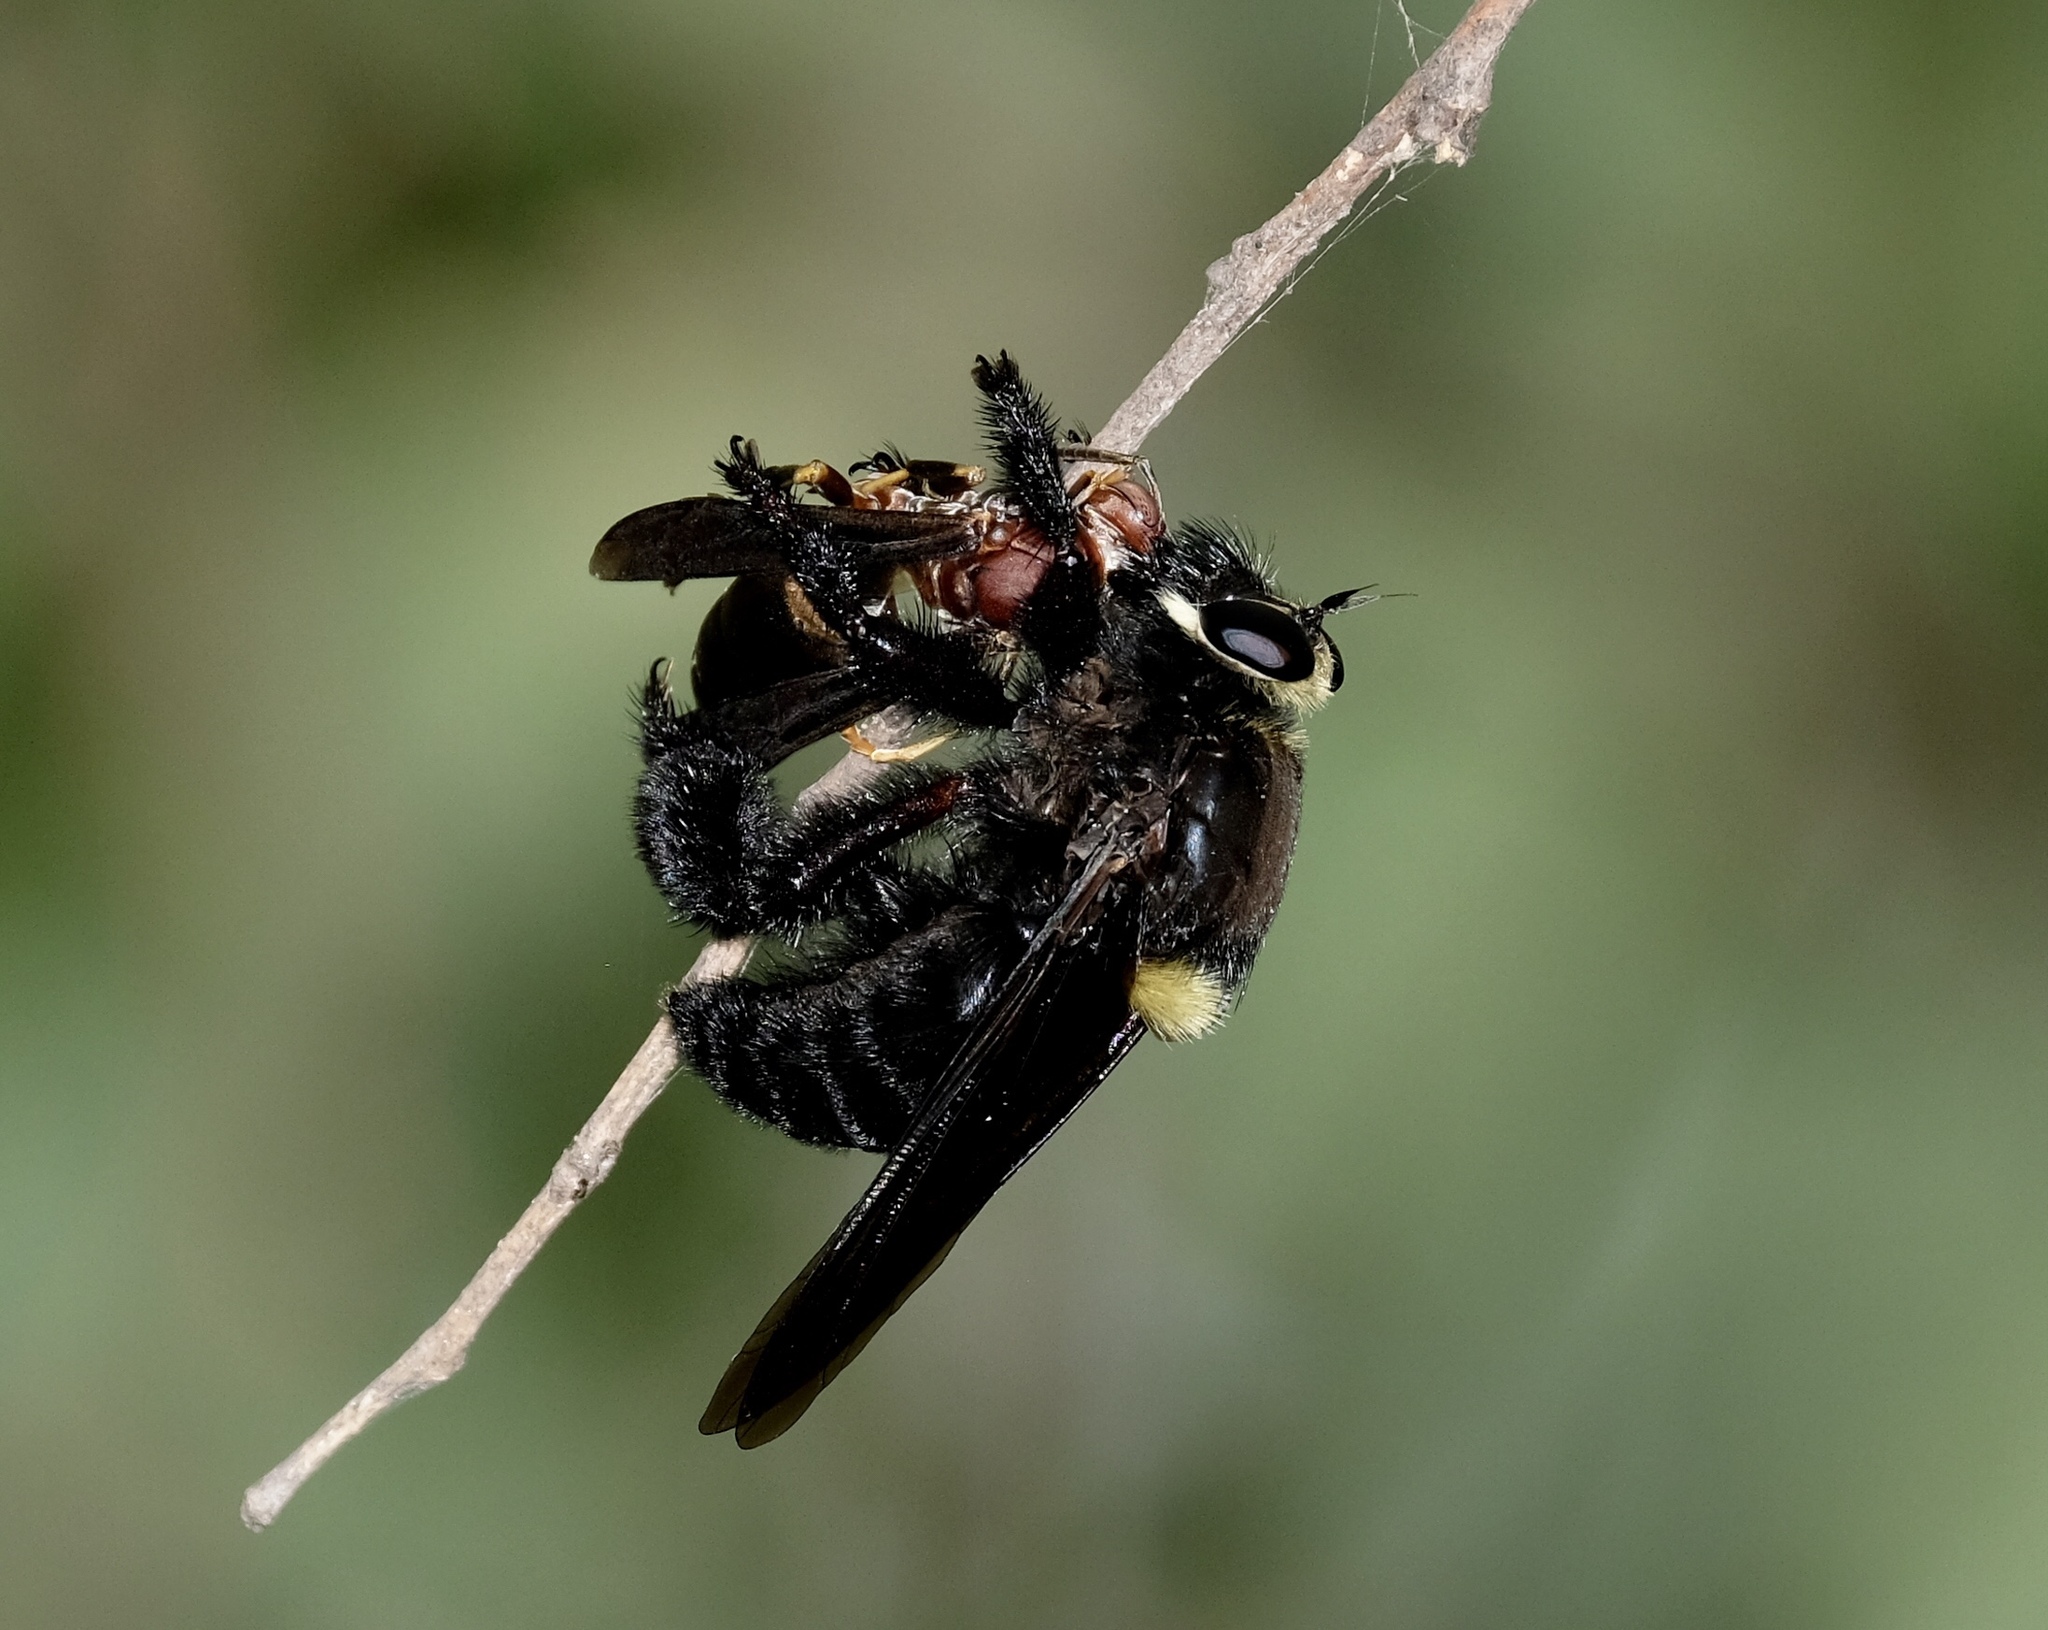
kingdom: Animalia
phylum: Arthropoda
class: Insecta
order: Diptera
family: Asilidae
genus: Mallophora
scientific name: Mallophora leschenaultii
